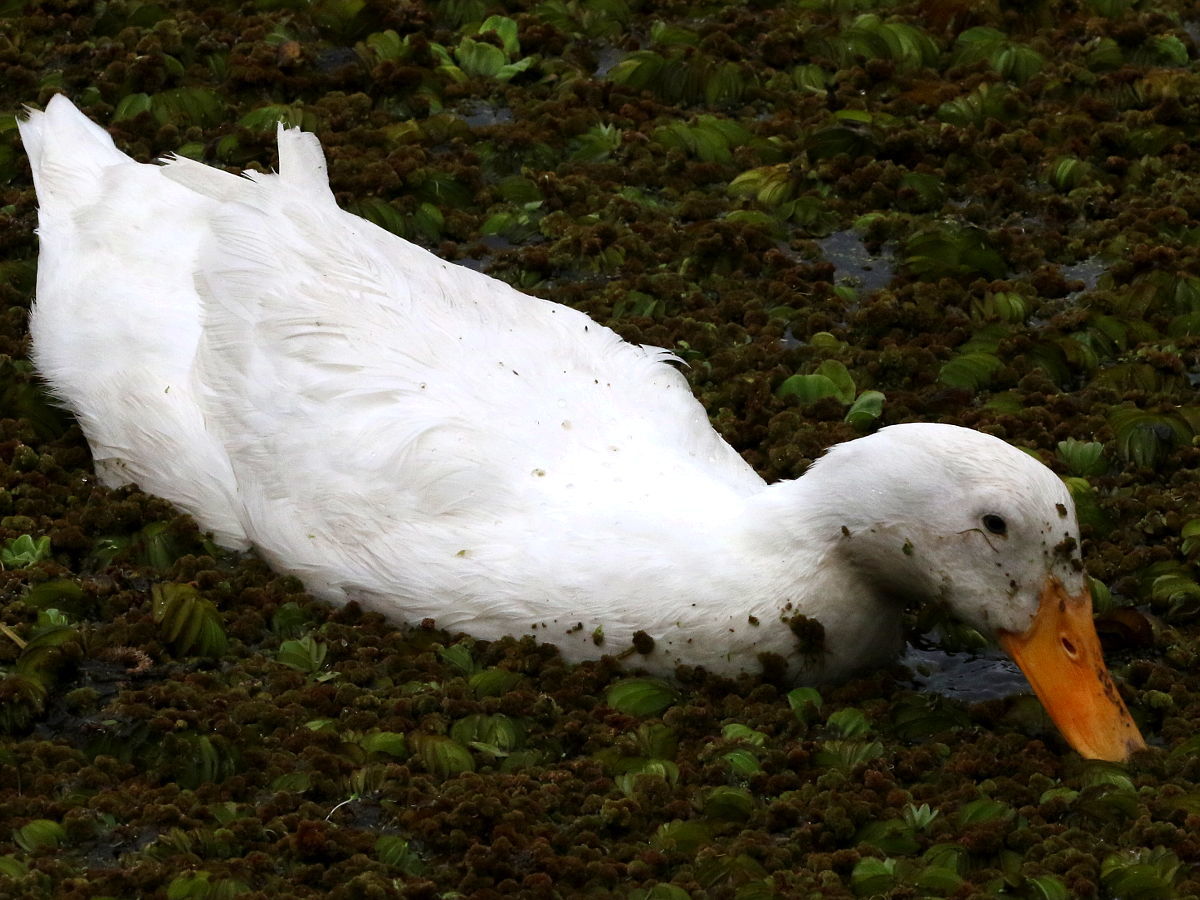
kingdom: Animalia
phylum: Chordata
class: Aves
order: Anseriformes
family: Anatidae
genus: Anas
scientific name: Anas platyrhynchos
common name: Mallard
